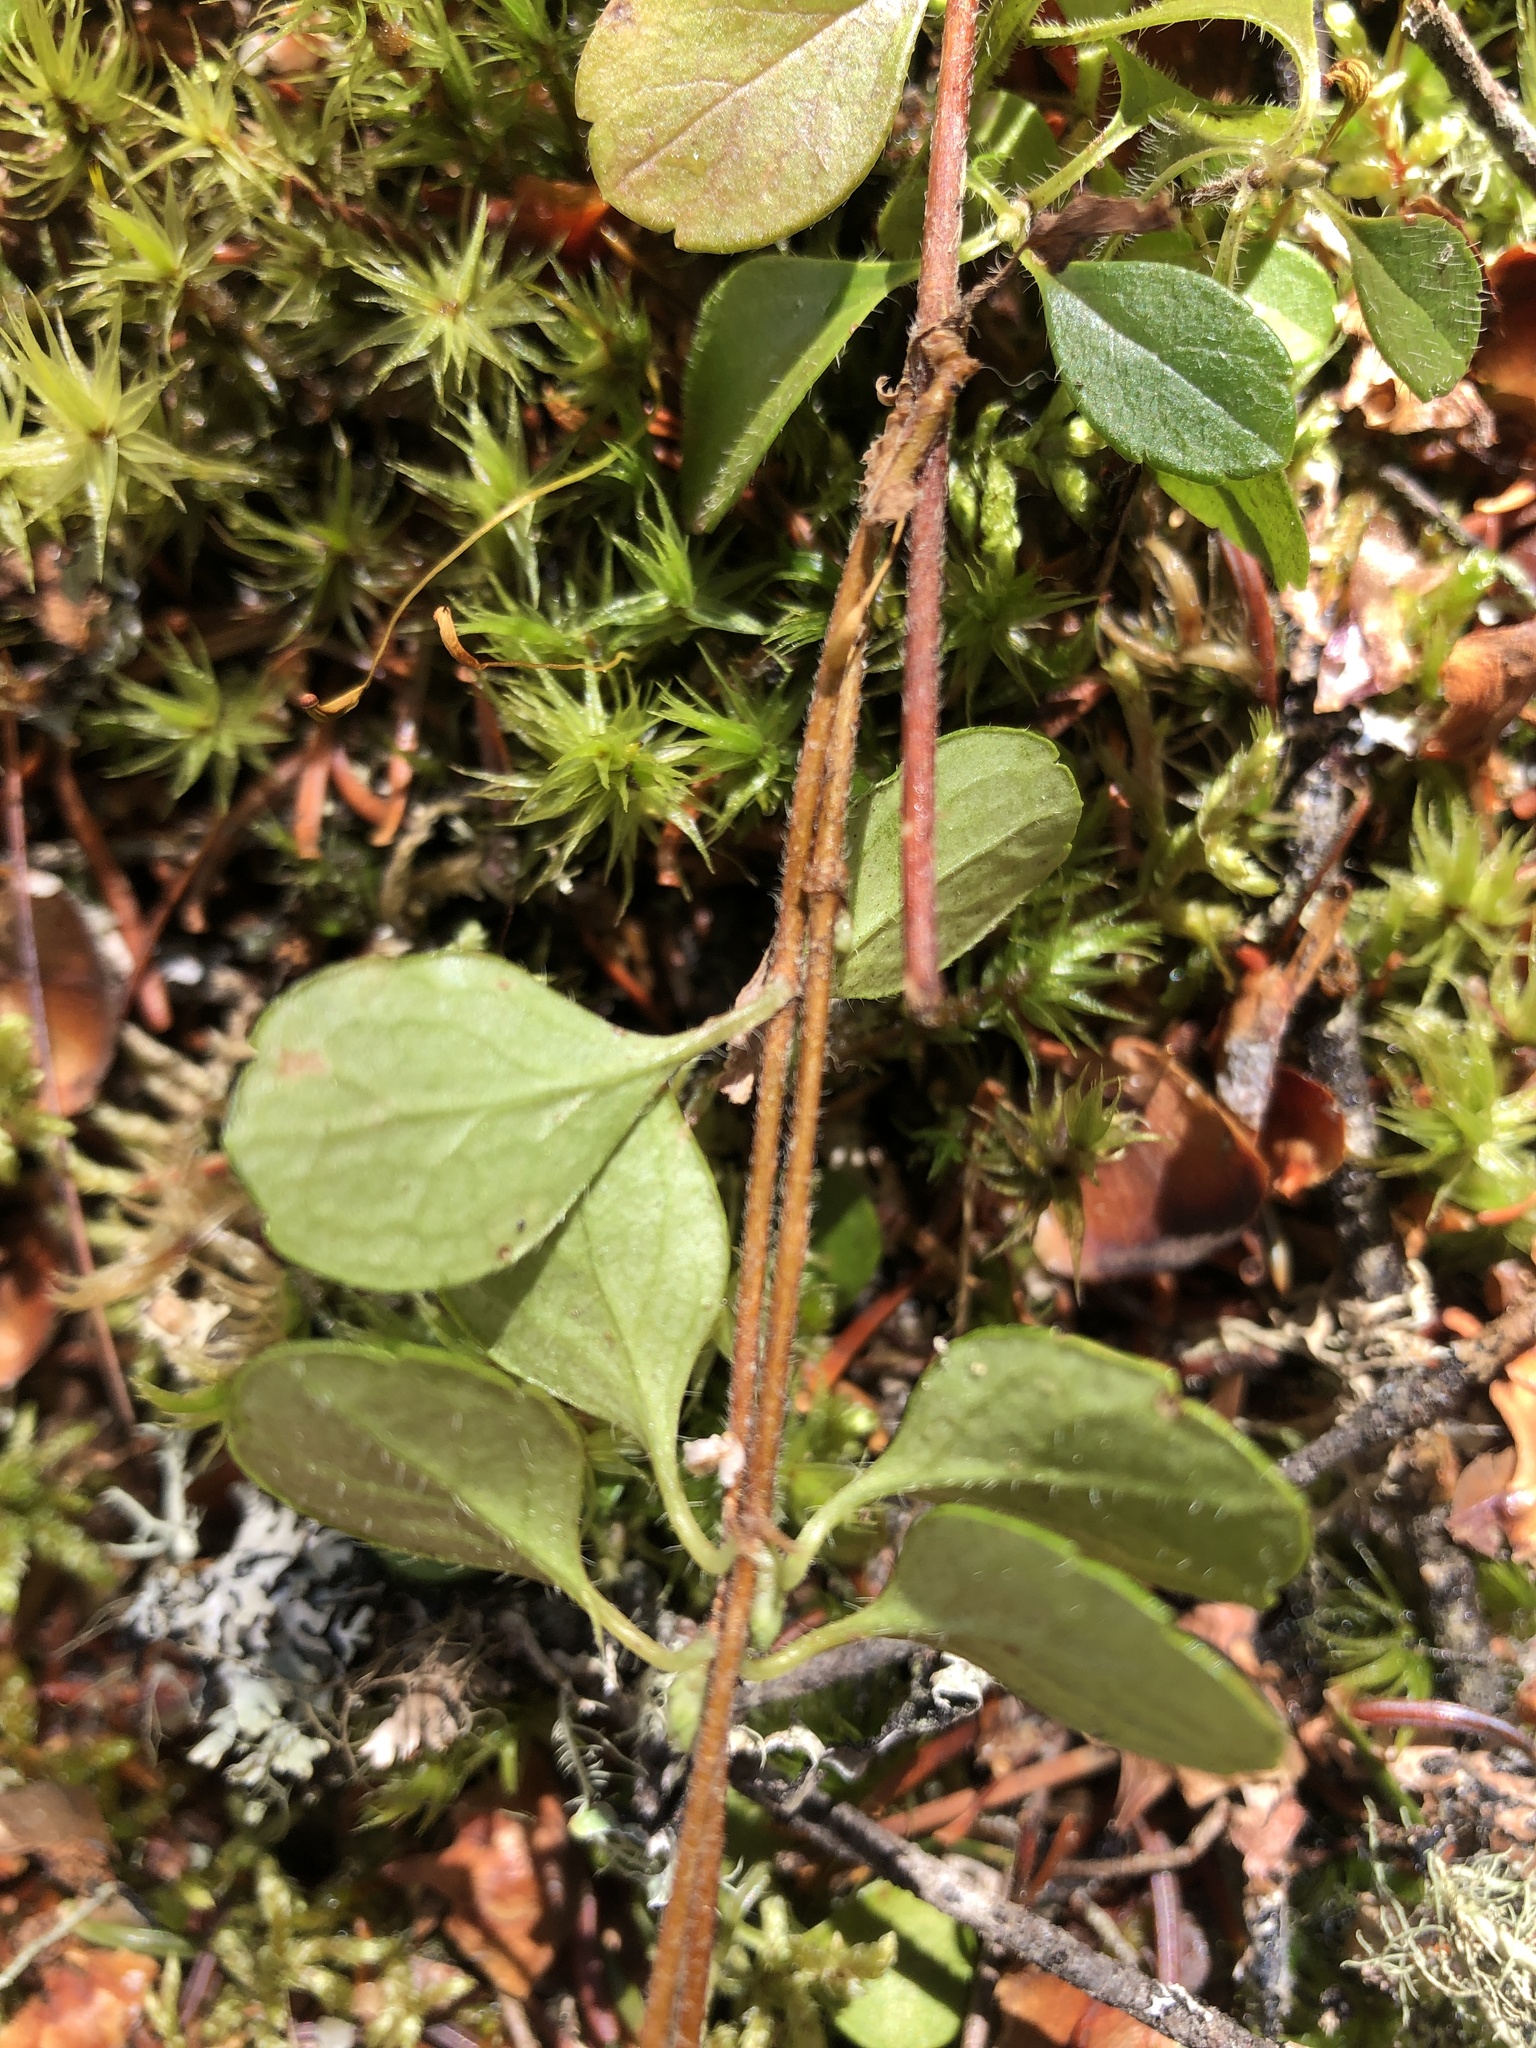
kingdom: Plantae
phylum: Tracheophyta
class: Magnoliopsida
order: Dipsacales
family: Caprifoliaceae
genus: Linnaea
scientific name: Linnaea borealis
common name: Twinflower
